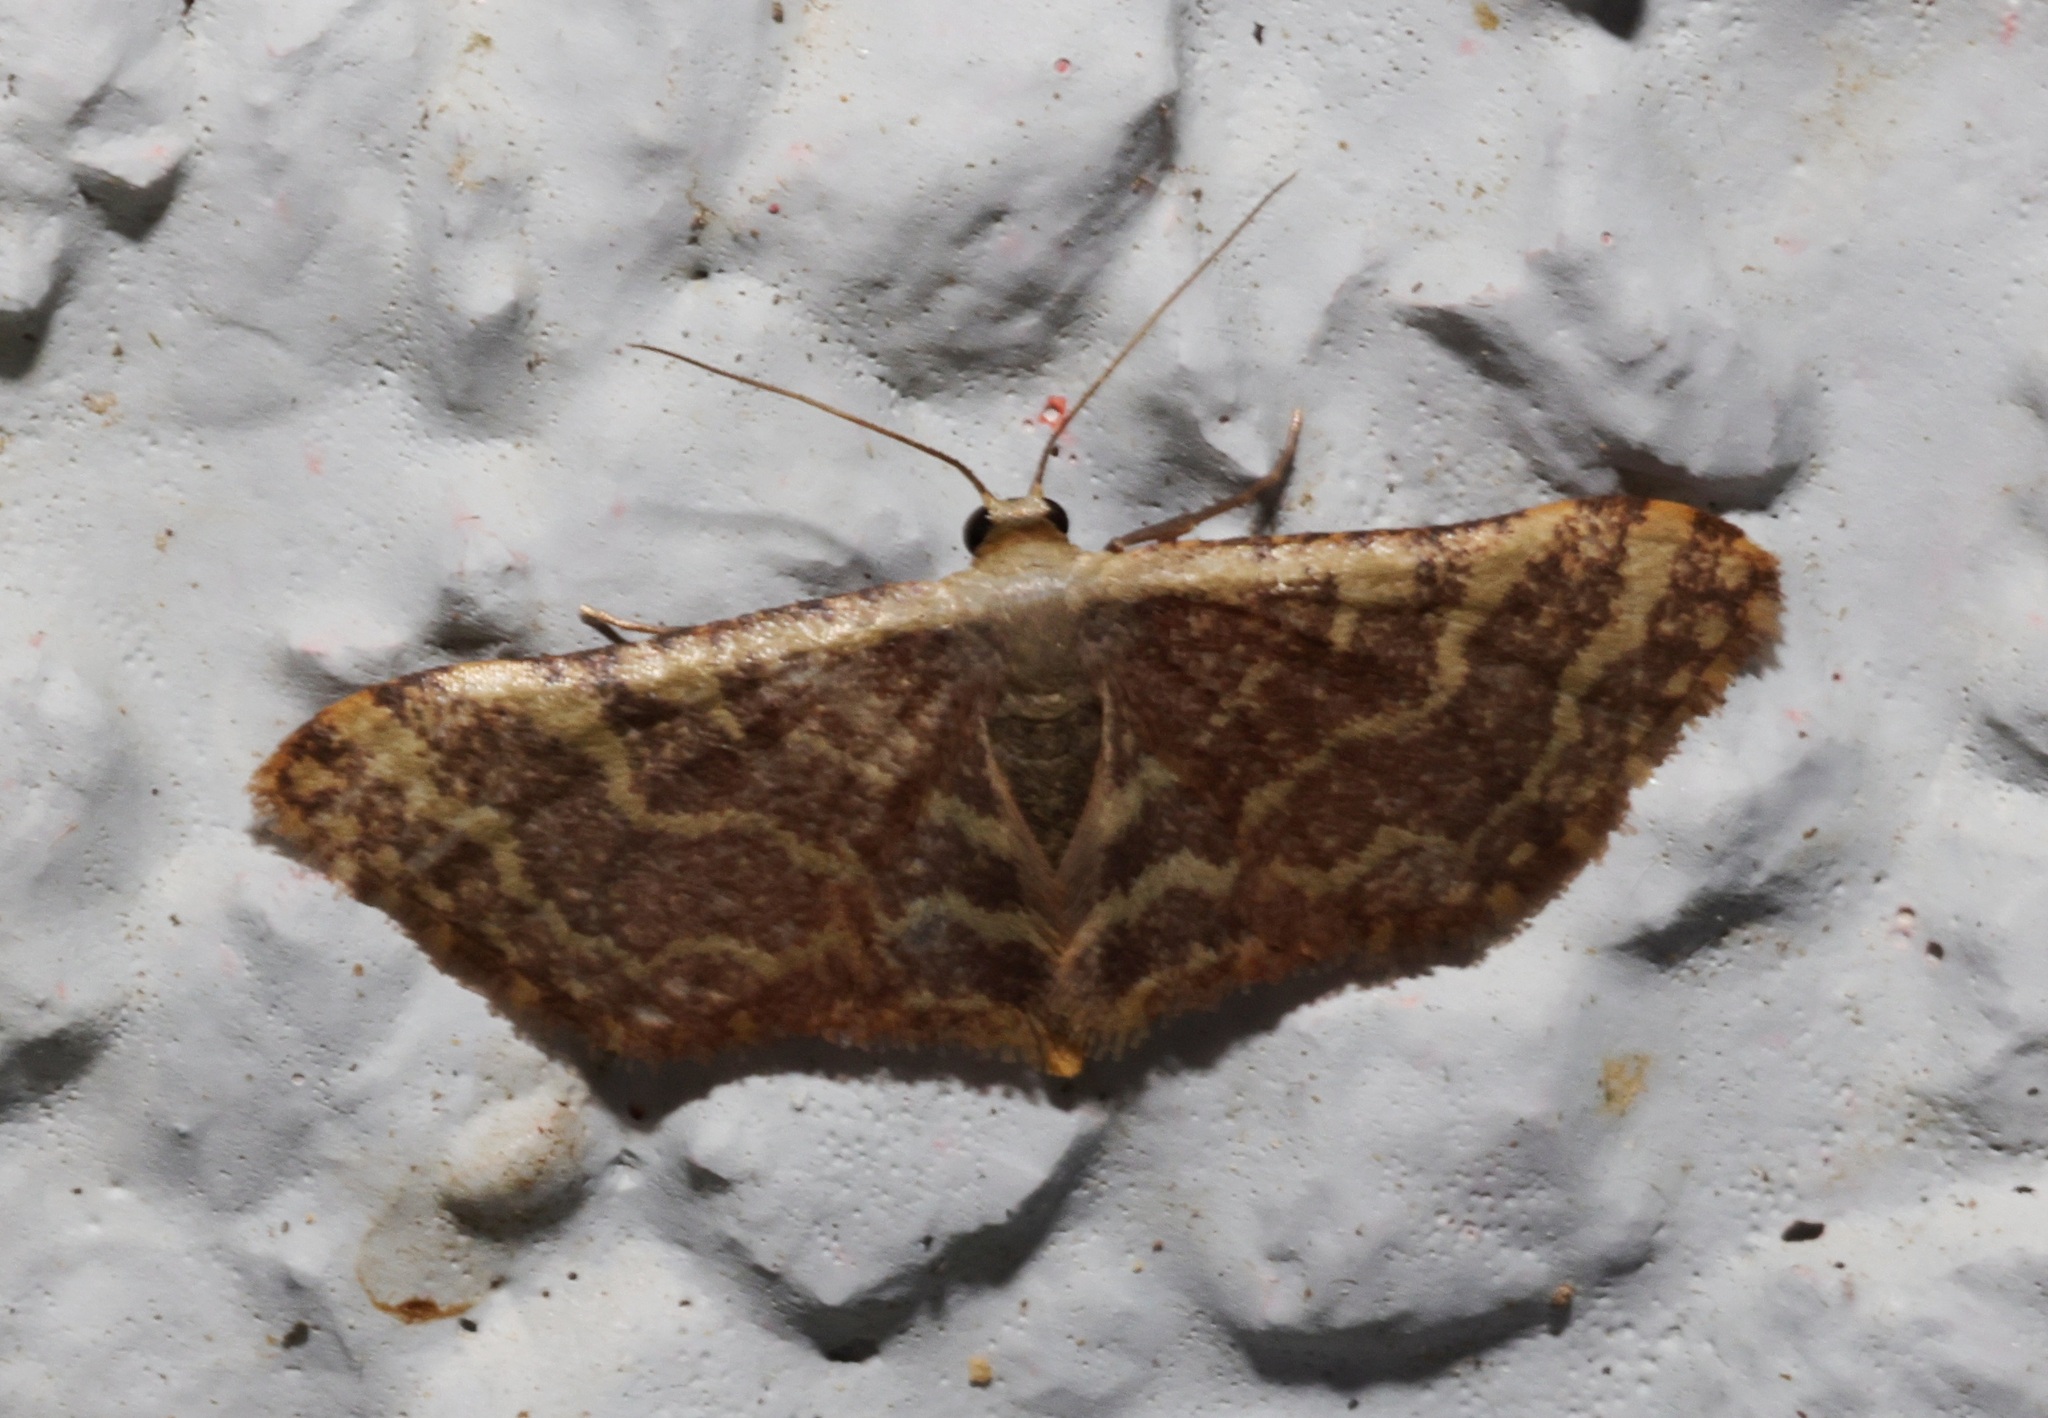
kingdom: Animalia
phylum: Arthropoda
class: Insecta
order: Lepidoptera
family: Geometridae
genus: Lophophleps
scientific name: Lophophleps purpurea
